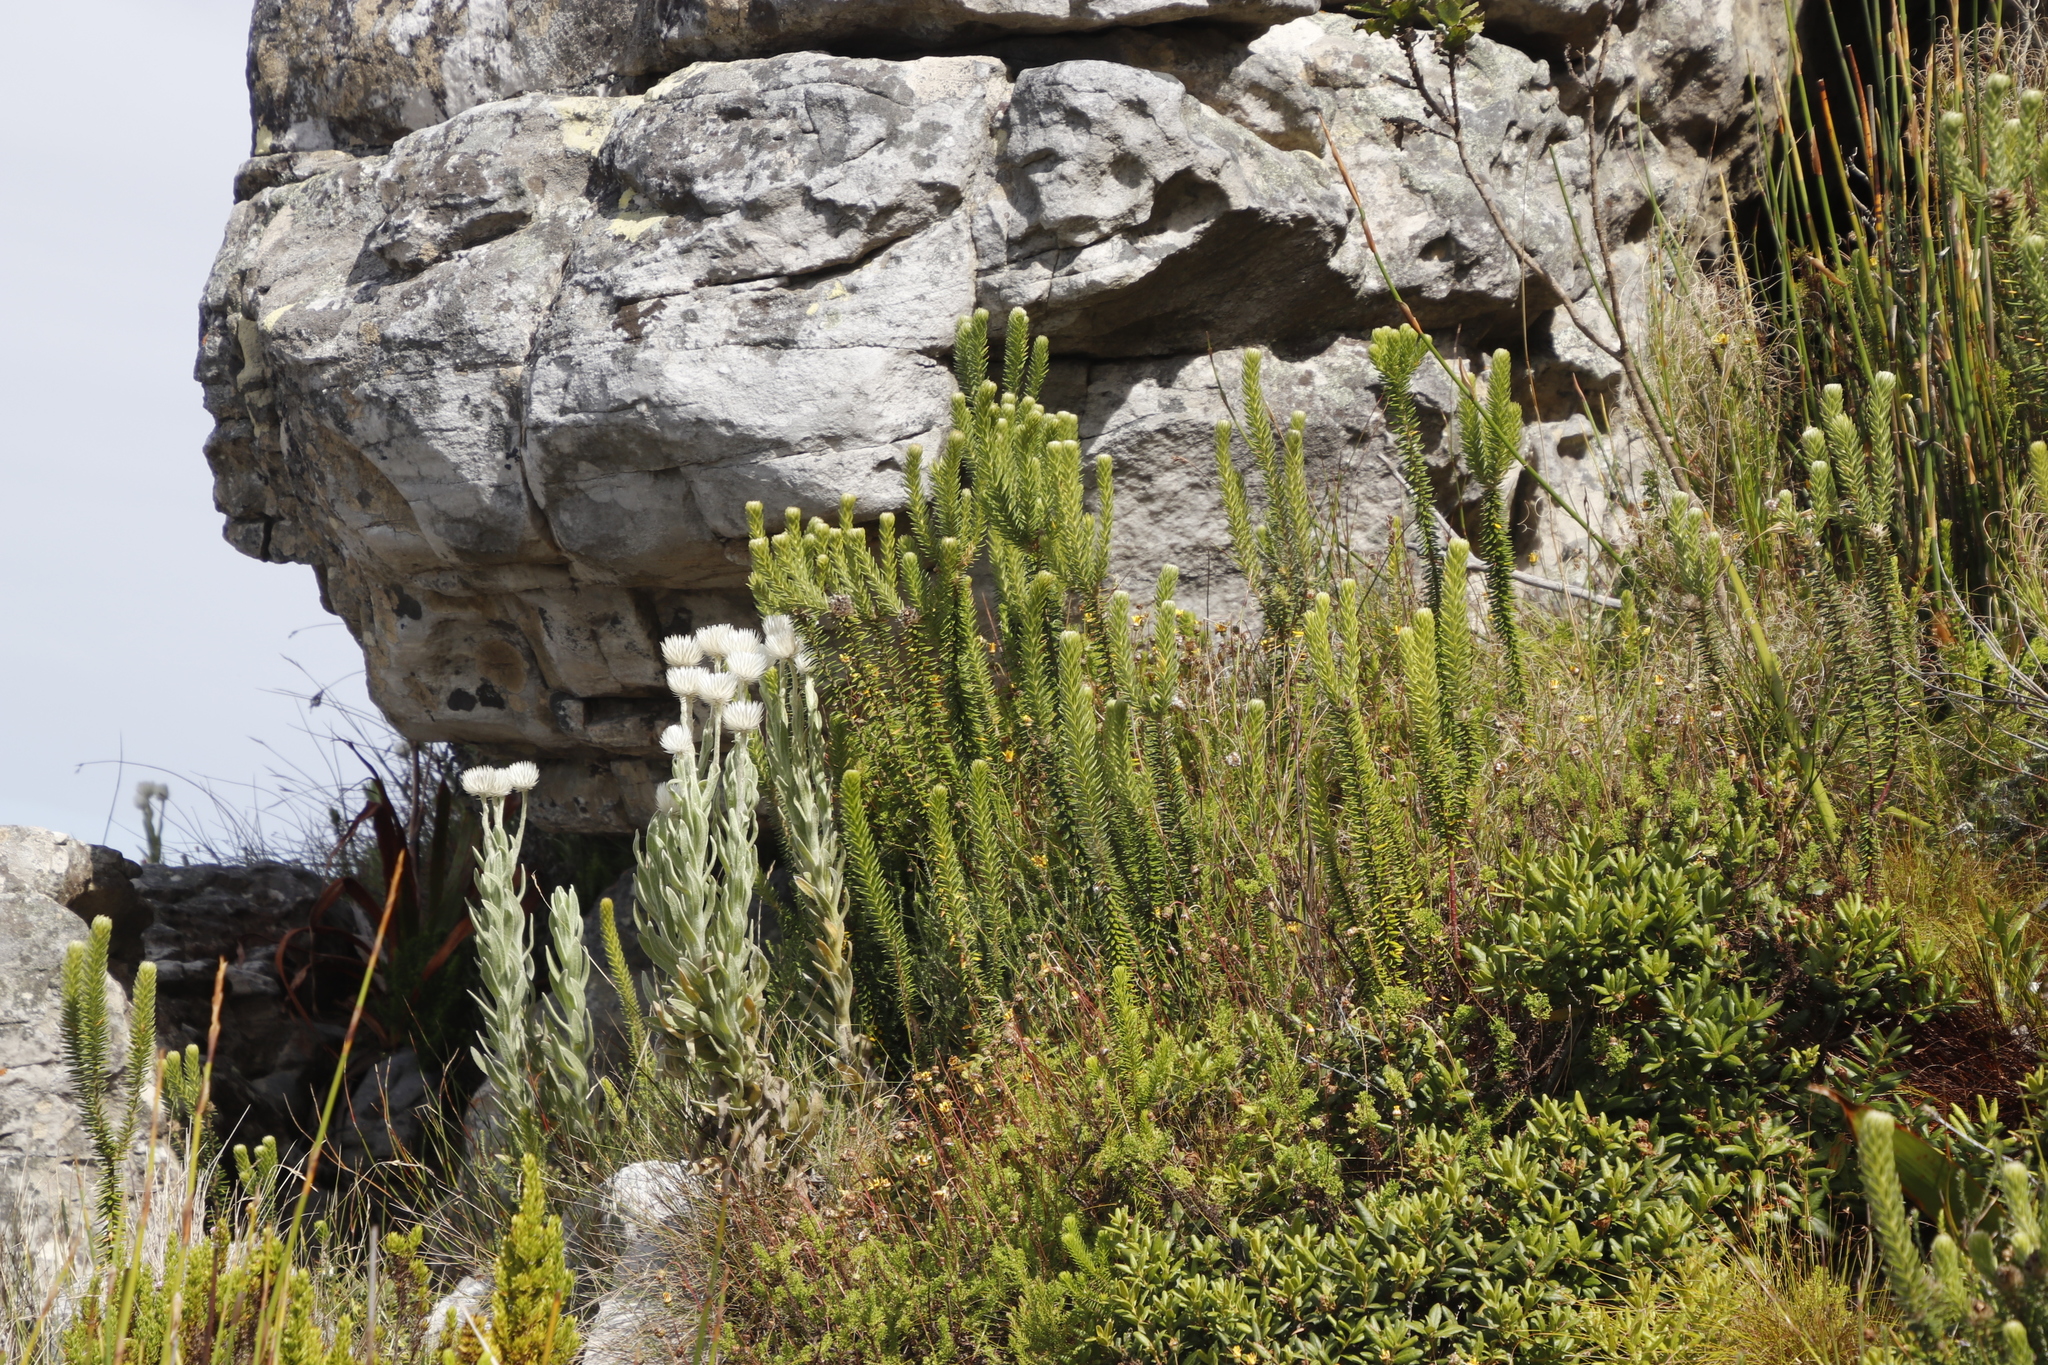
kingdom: Plantae
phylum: Tracheophyta
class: Magnoliopsida
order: Rosales
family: Rhamnaceae
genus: Phylica
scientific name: Phylica strigosa
